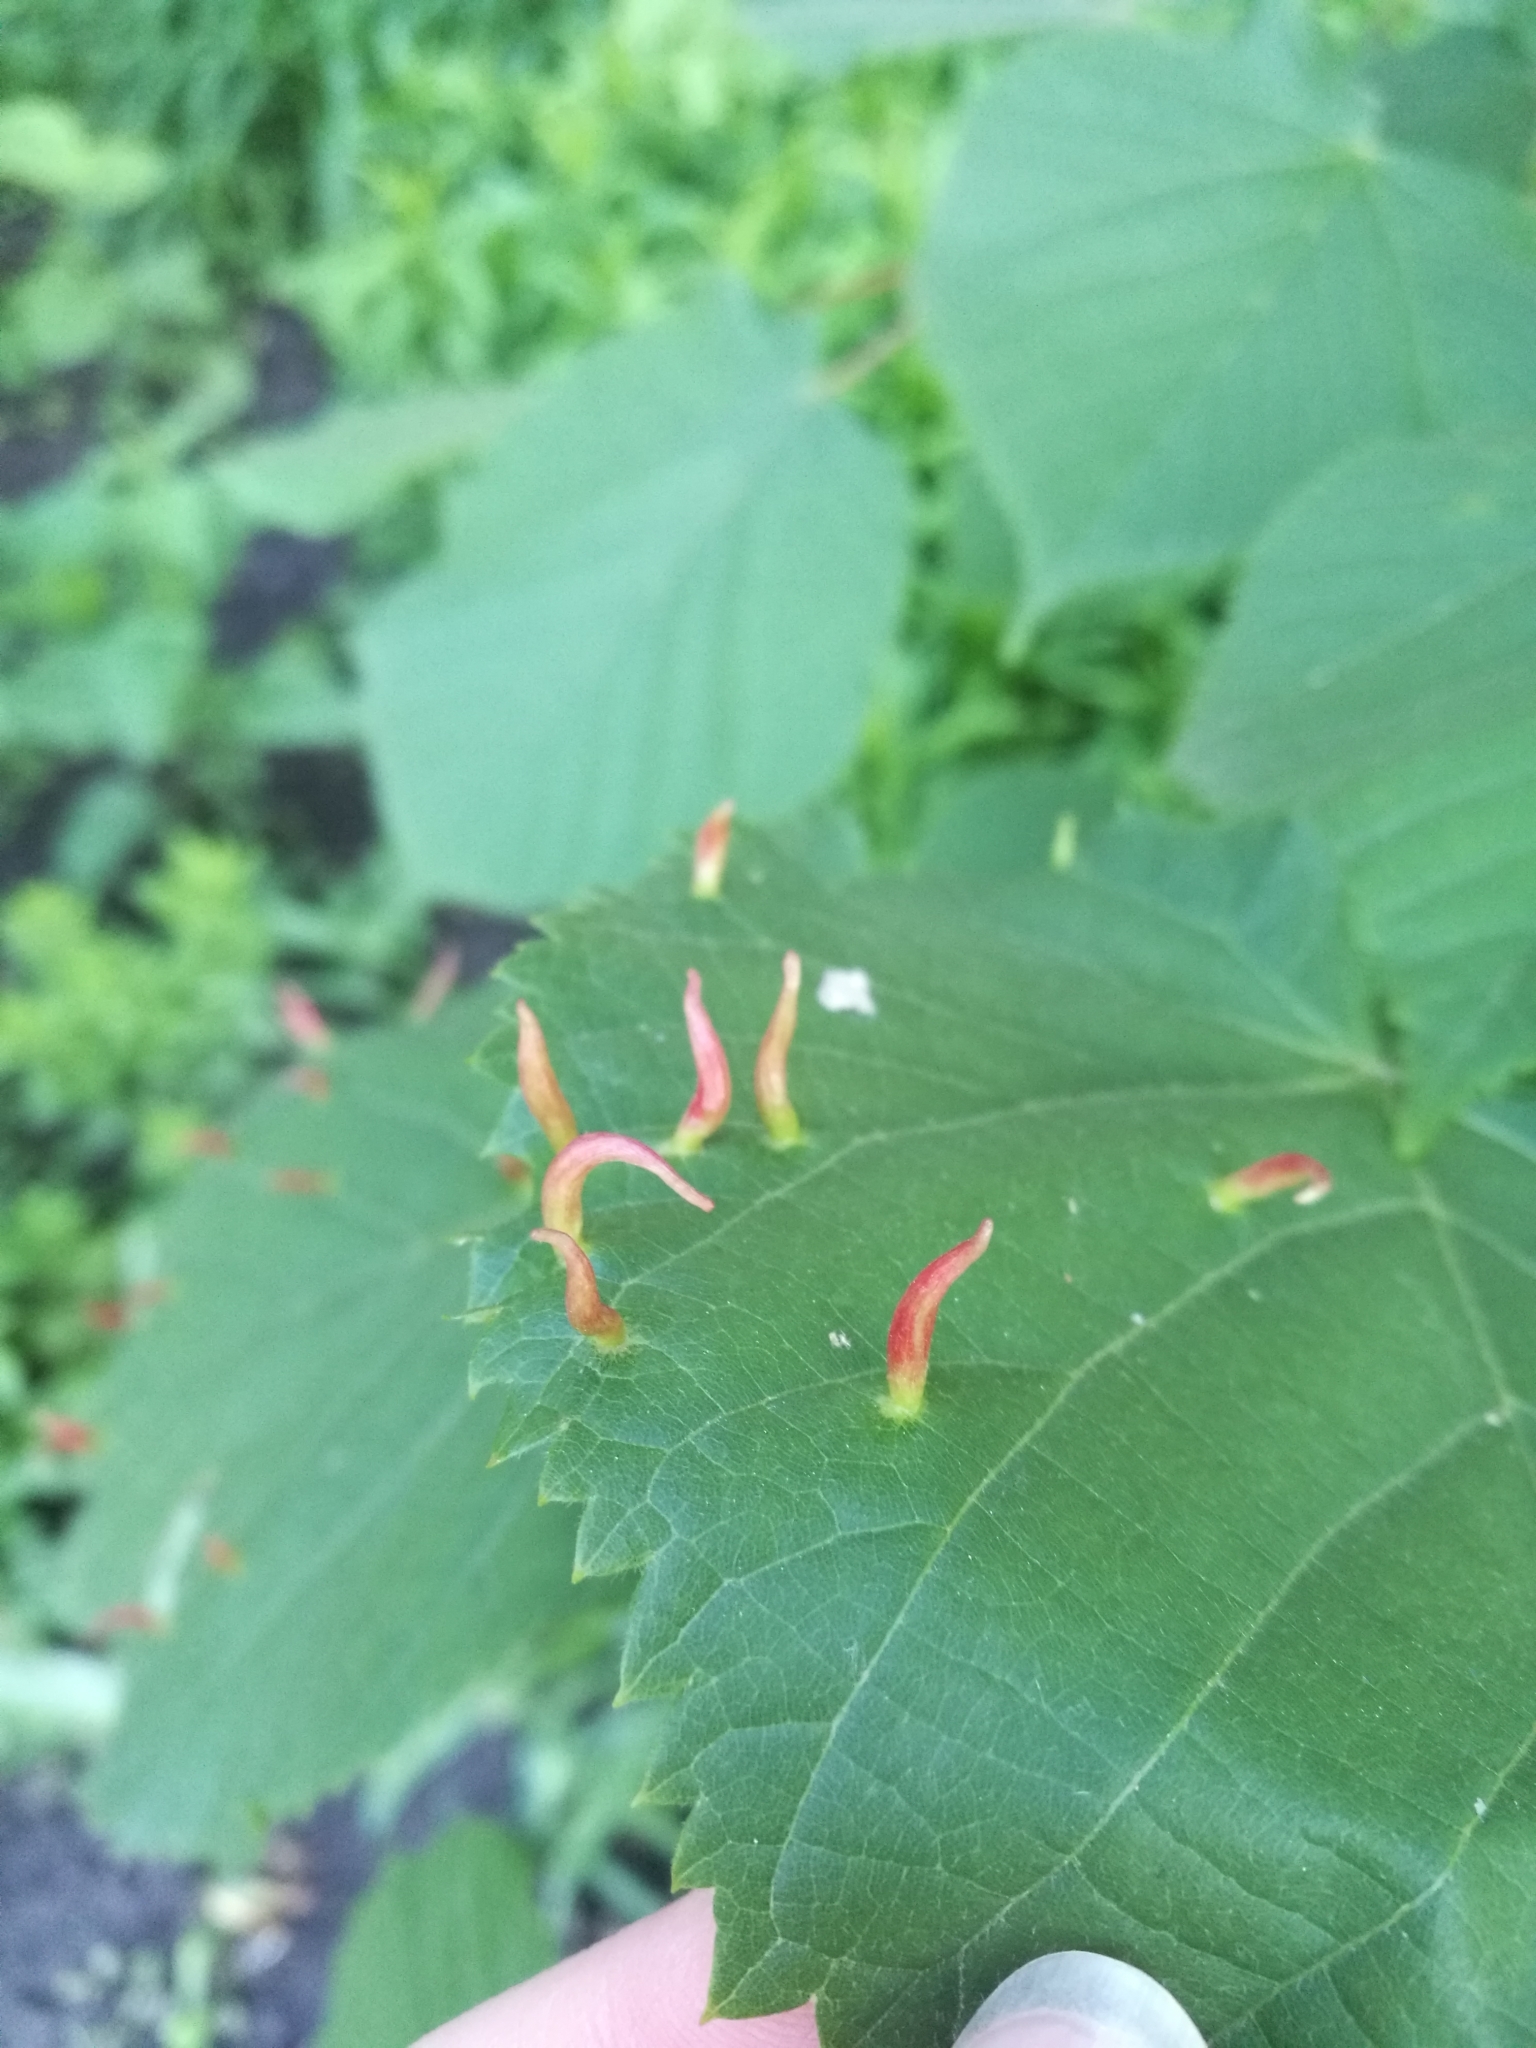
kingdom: Animalia
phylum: Arthropoda
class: Arachnida
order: Trombidiformes
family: Eriophyidae
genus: Eriophyes
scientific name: Eriophyes tiliae
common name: Red nail gall mite
